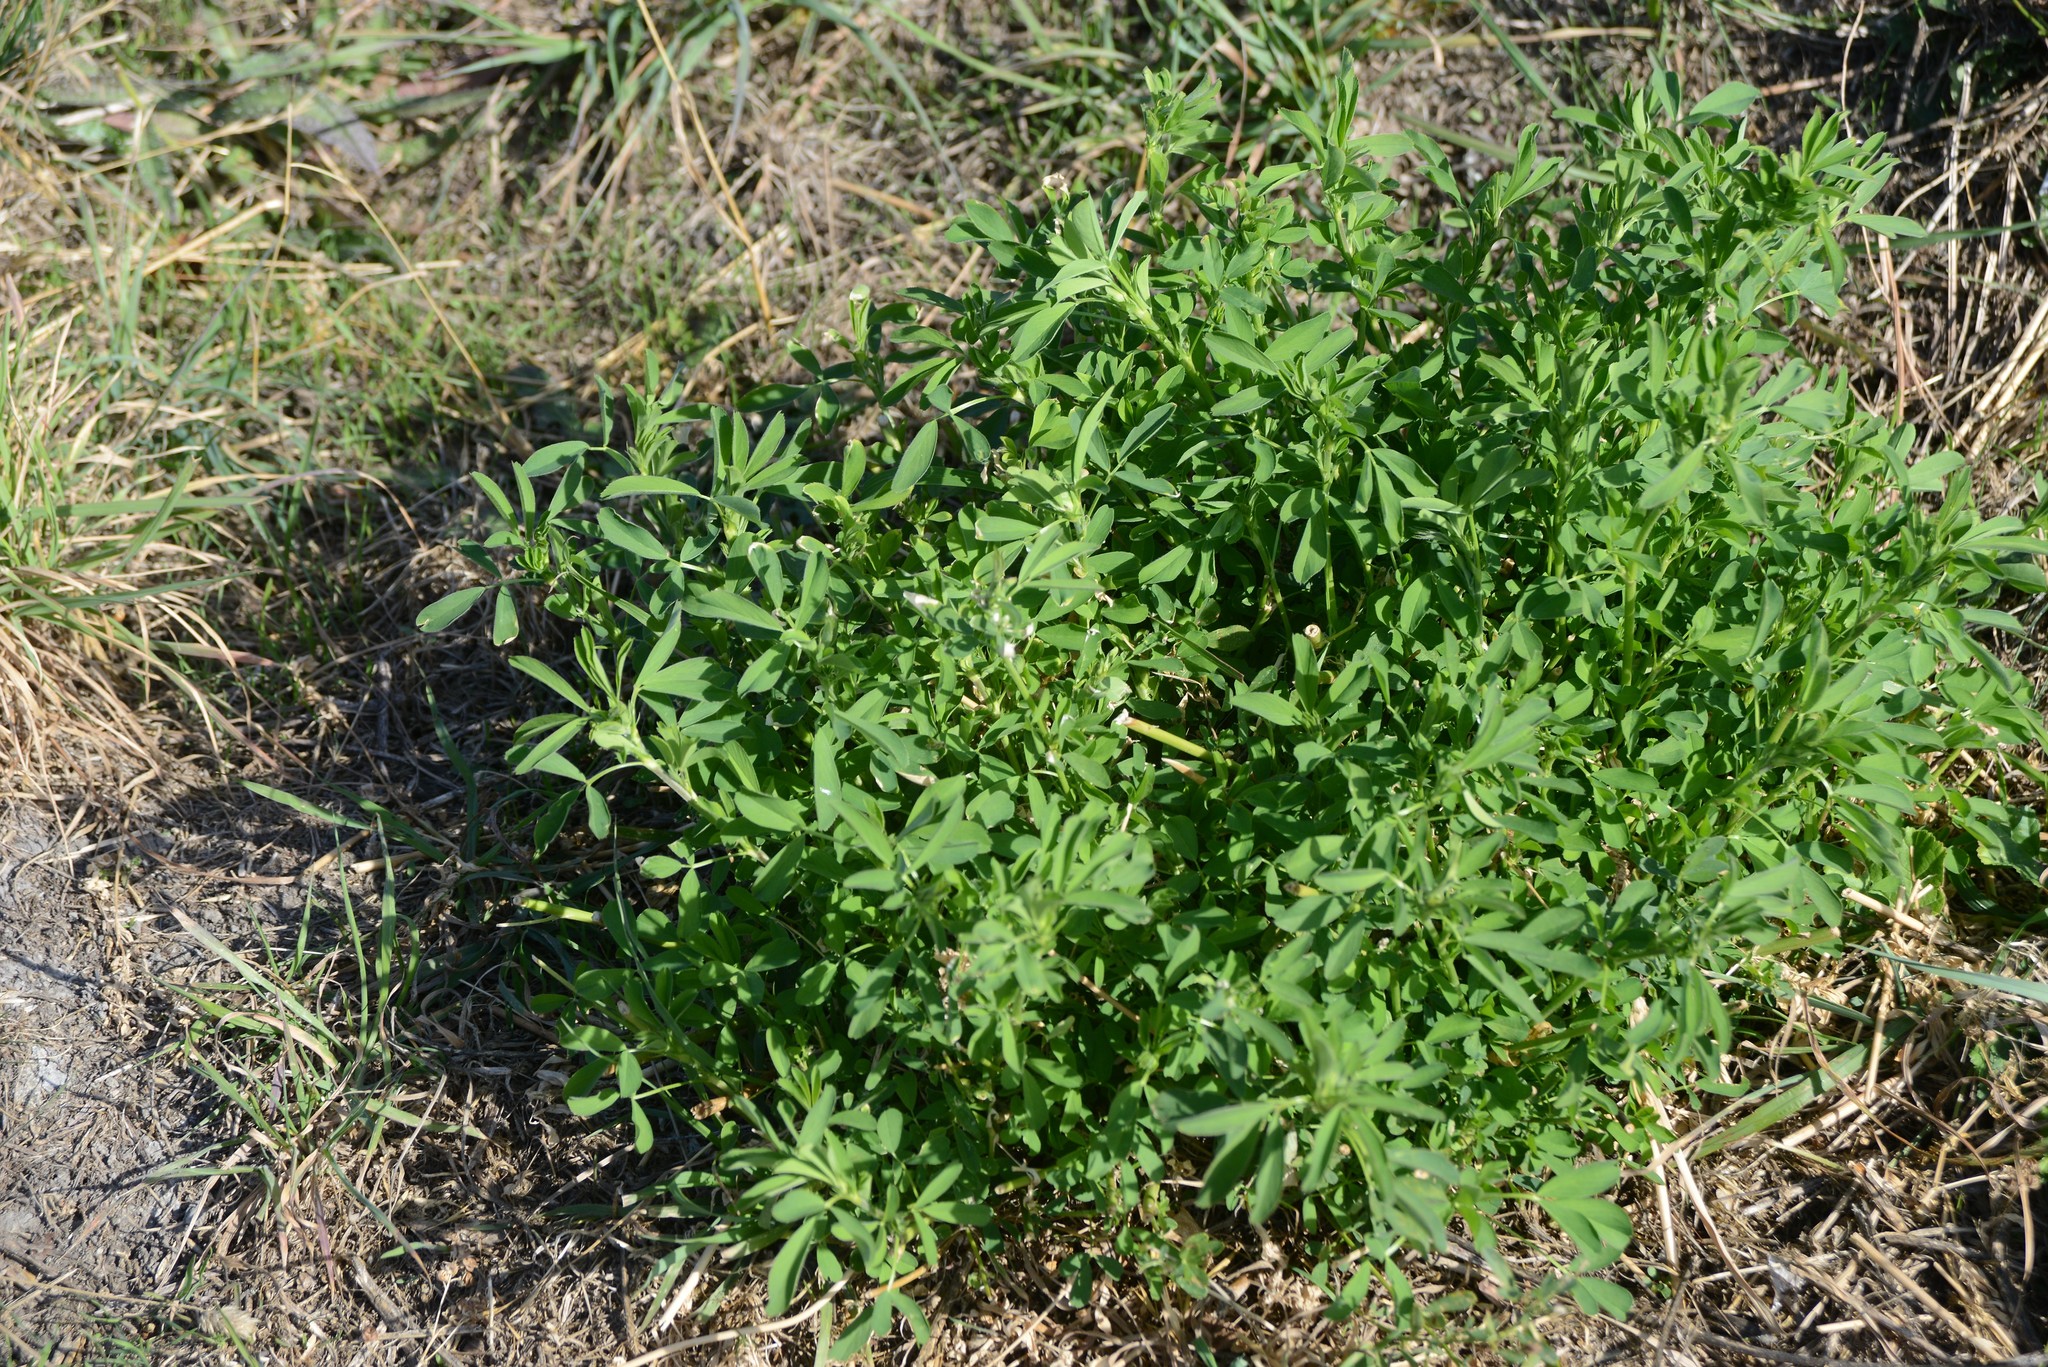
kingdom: Plantae
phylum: Tracheophyta
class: Magnoliopsida
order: Fabales
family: Fabaceae
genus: Medicago
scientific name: Medicago sativa
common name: Alfalfa
